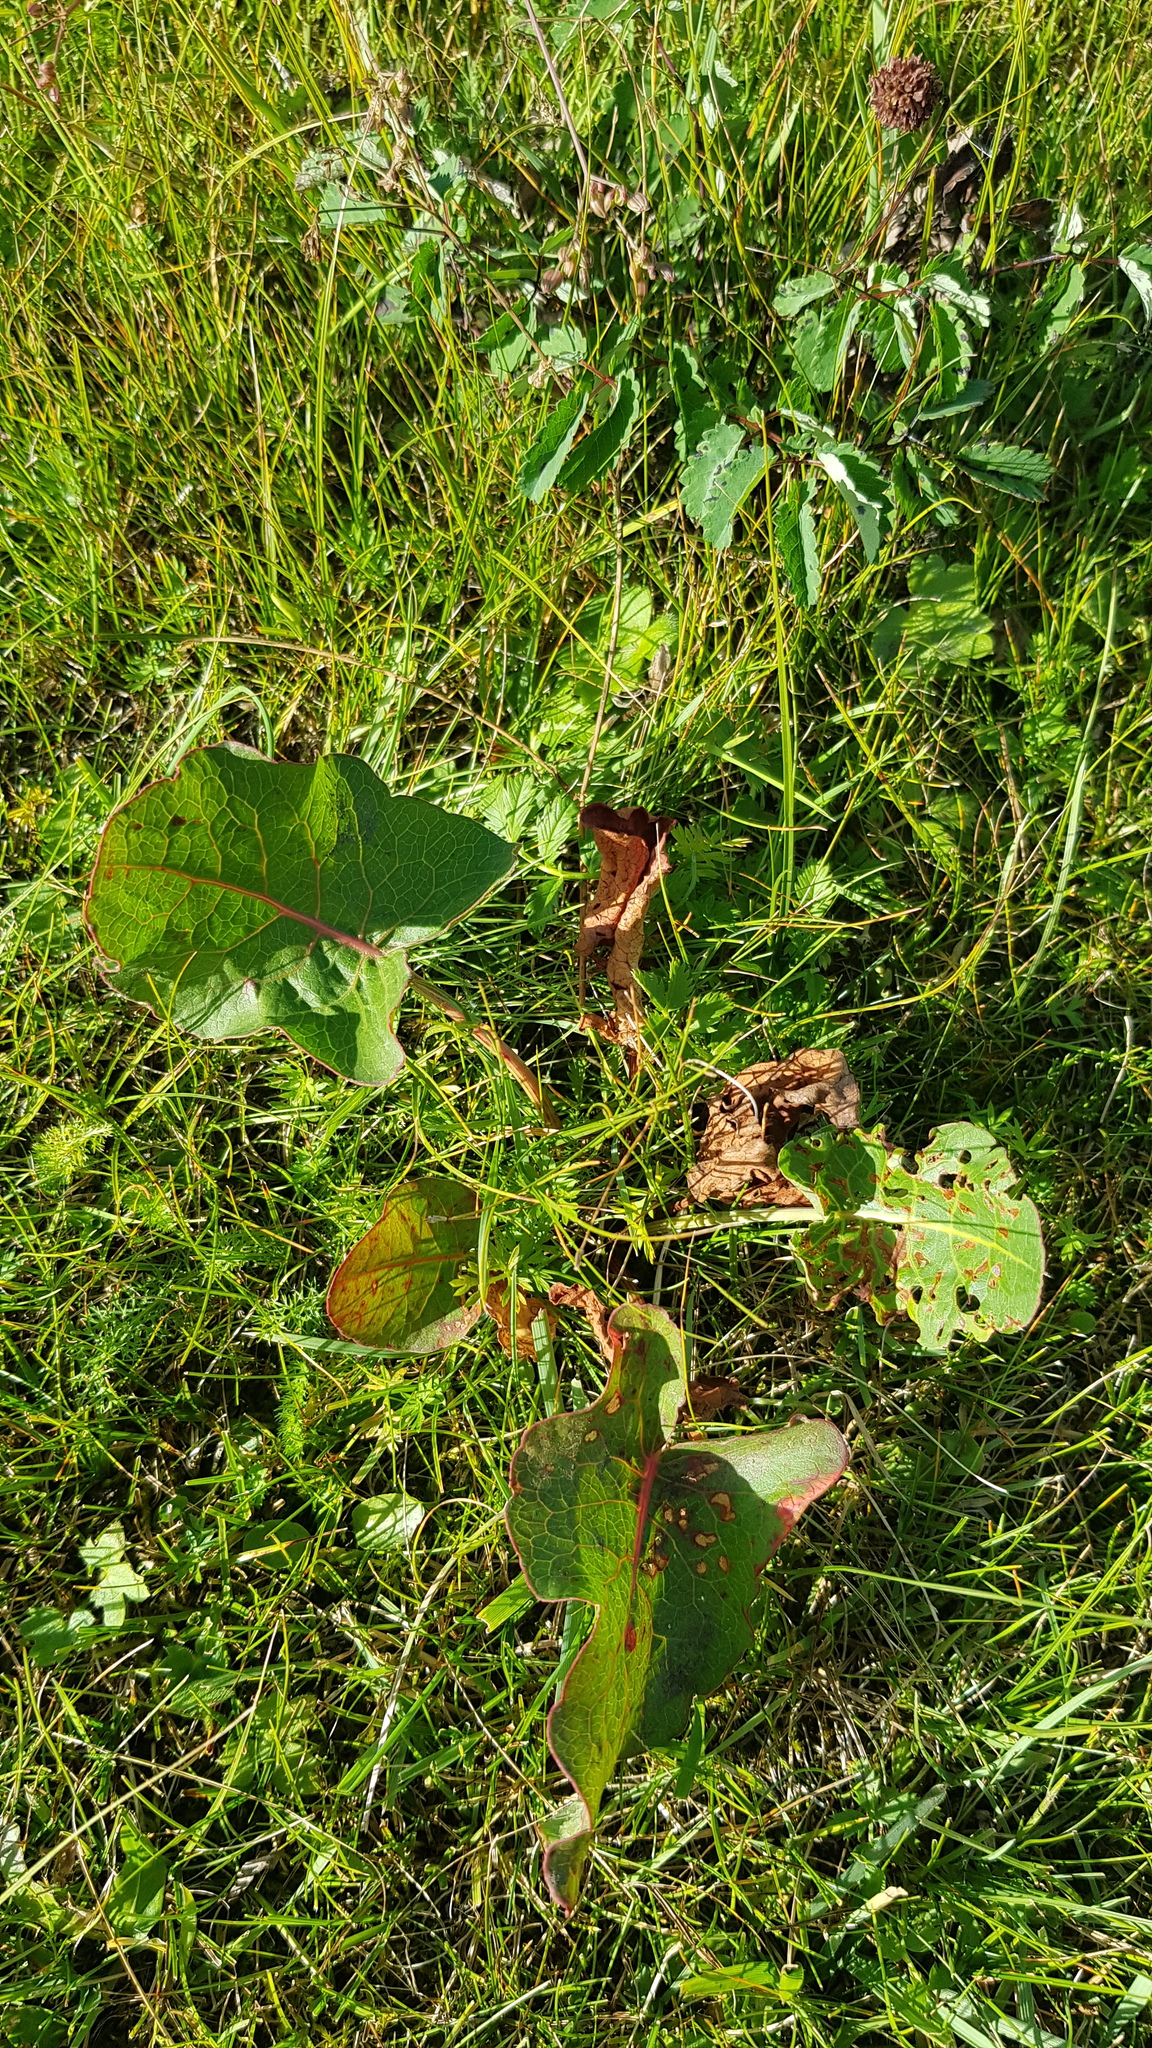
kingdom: Plantae
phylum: Tracheophyta
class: Magnoliopsida
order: Caryophyllales
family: Polygonaceae
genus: Rumex
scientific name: Rumex aquaticus
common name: Scottish dock
